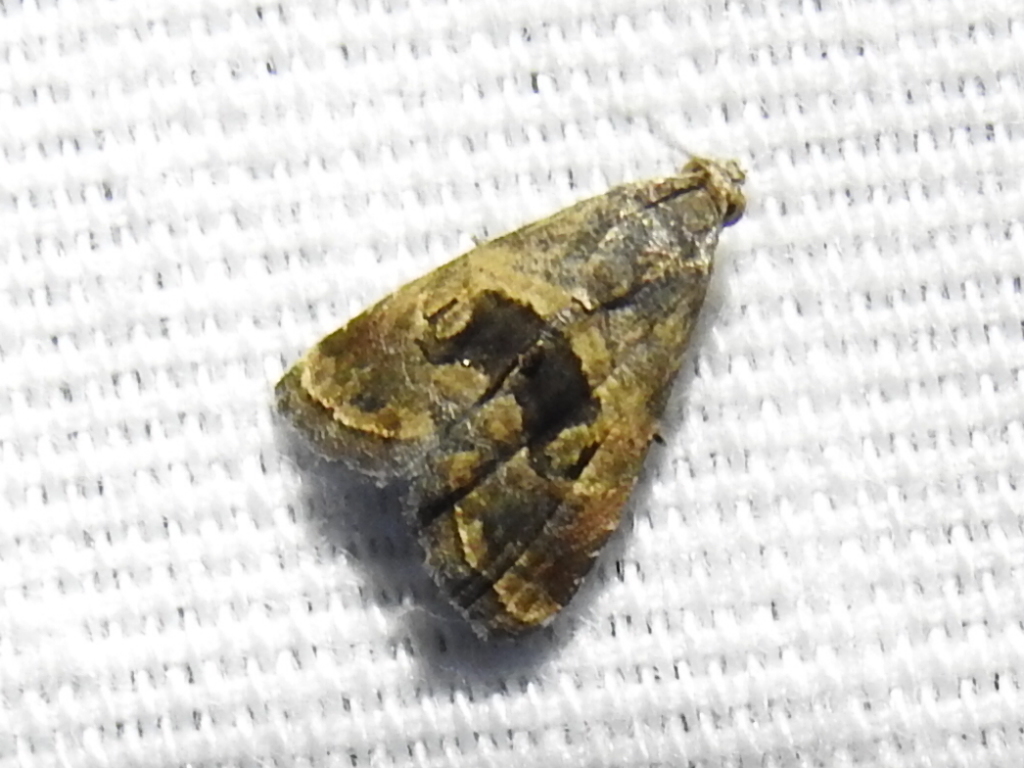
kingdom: Animalia
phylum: Arthropoda
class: Insecta
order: Lepidoptera
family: Noctuidae
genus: Tripudia
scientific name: Tripudia quadrifera
